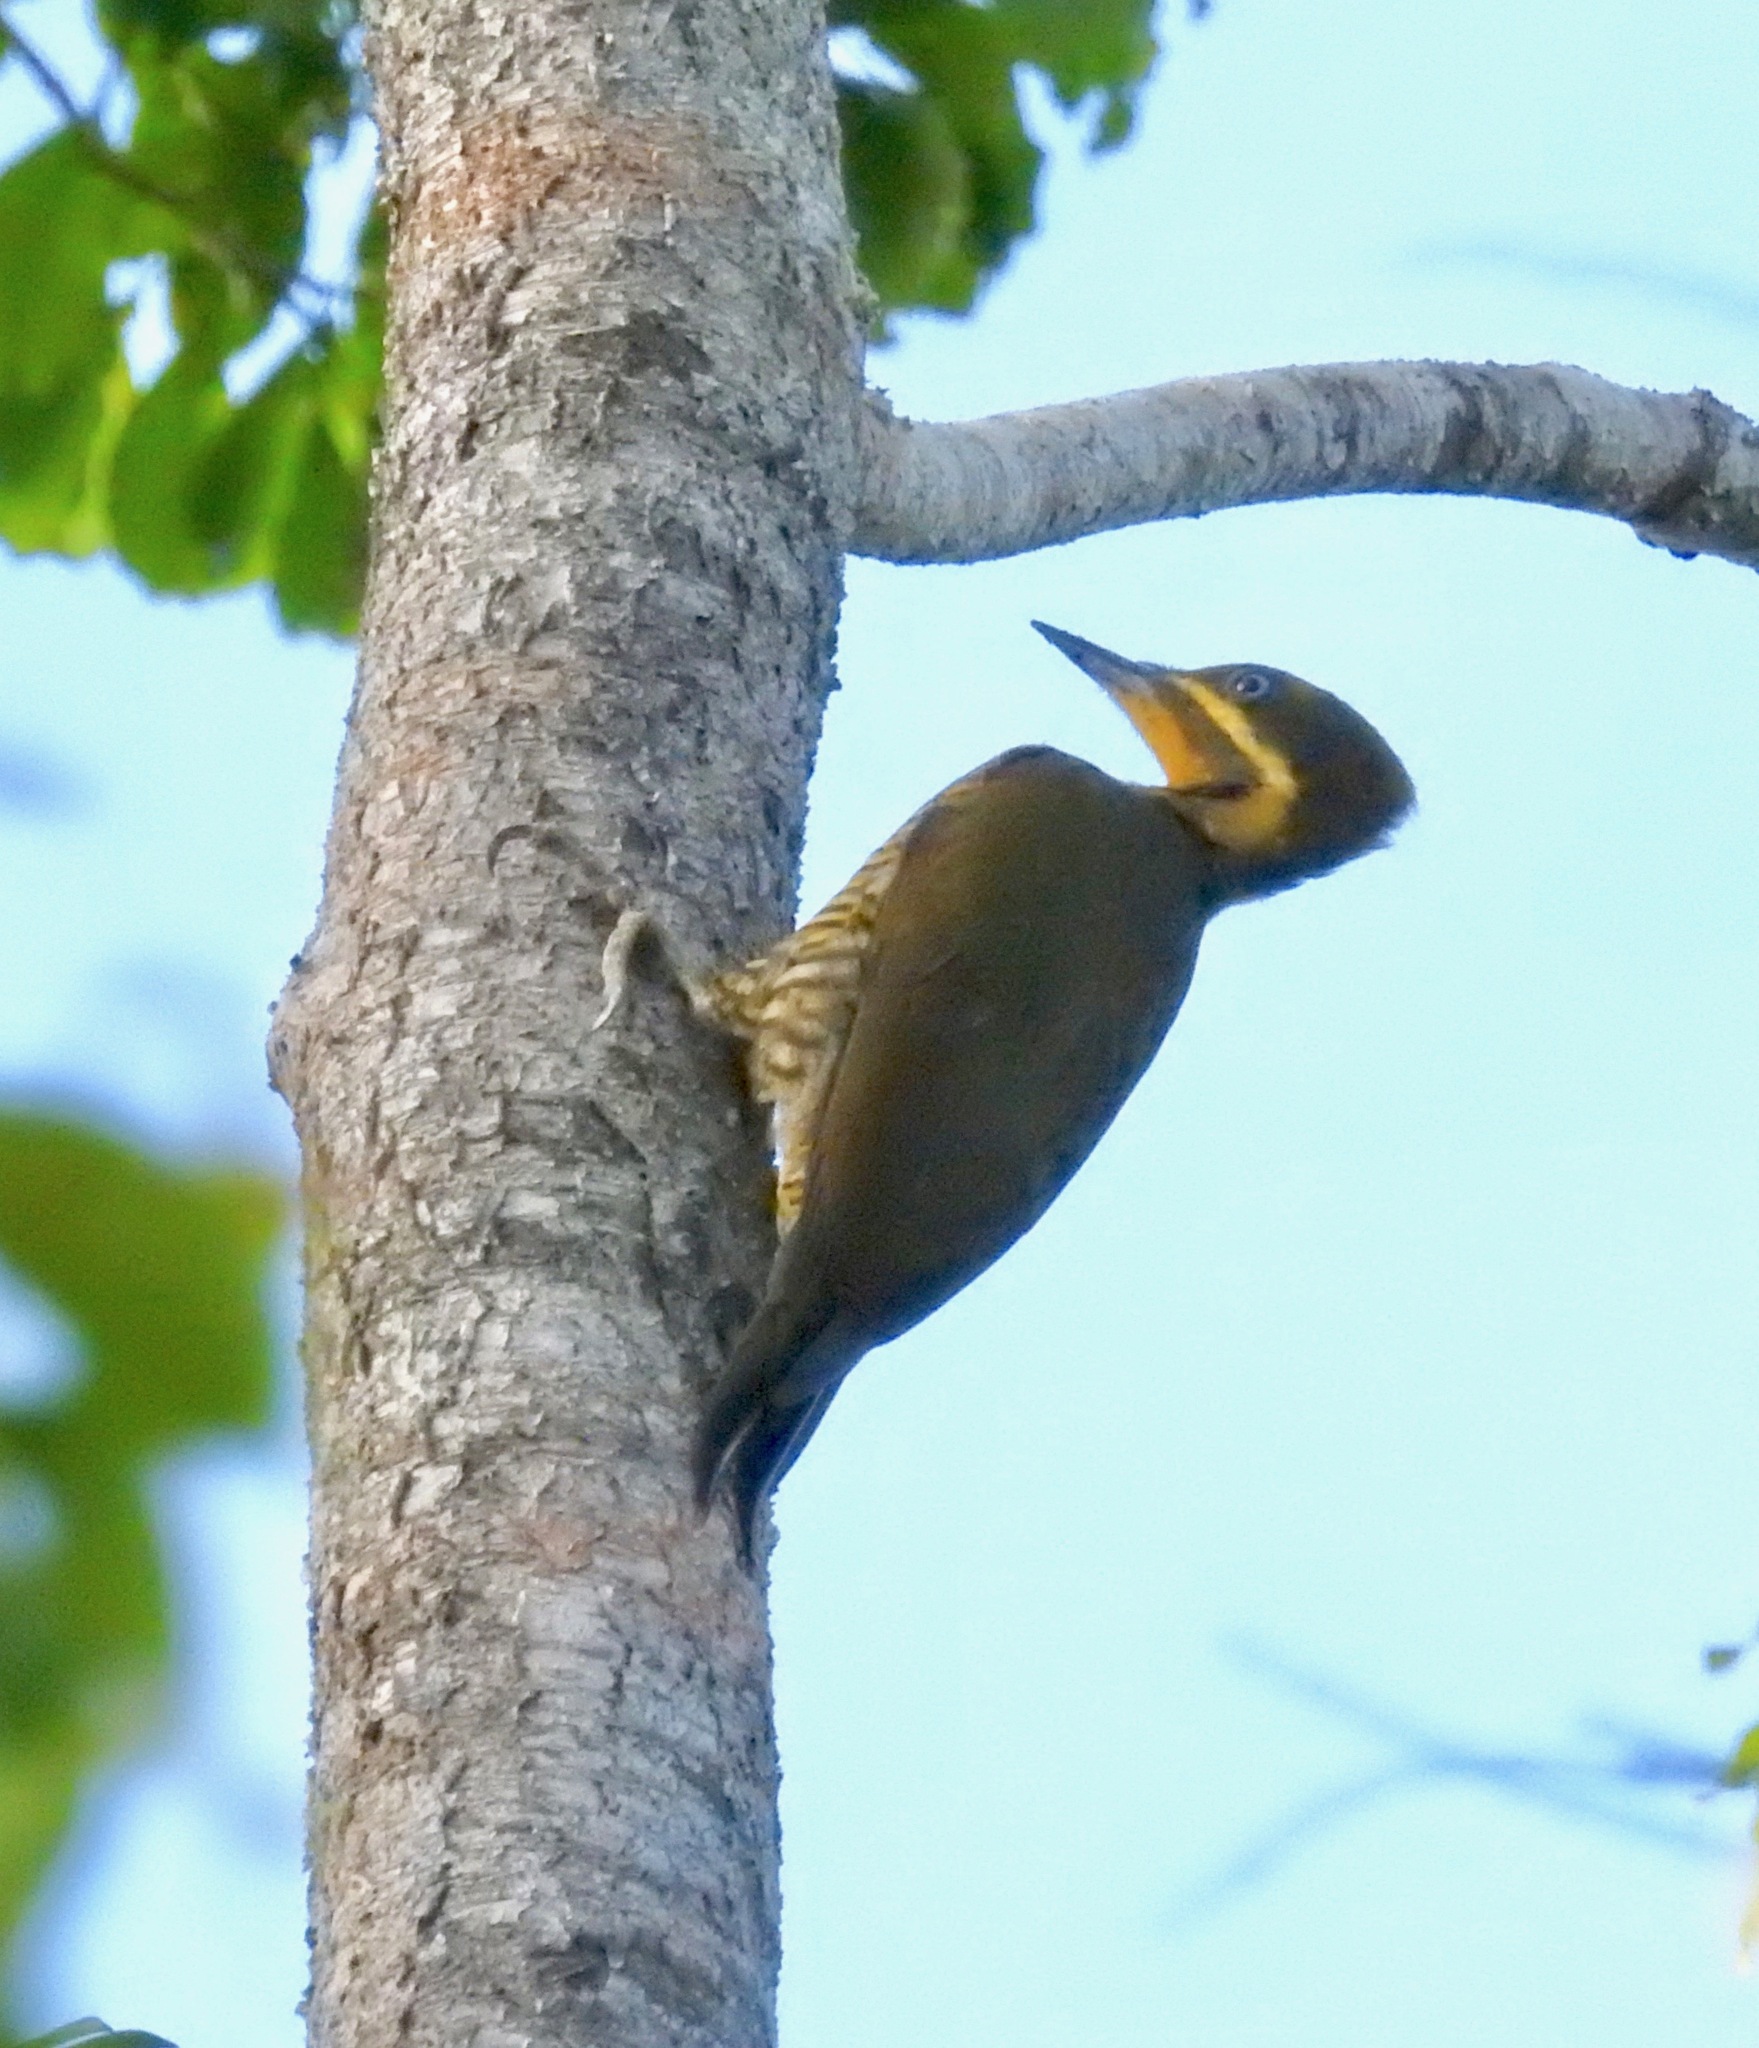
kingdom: Animalia
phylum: Chordata
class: Aves
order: Piciformes
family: Picidae
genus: Piculus
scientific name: Piculus chrysochloros
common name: Golden-green woodpecker
